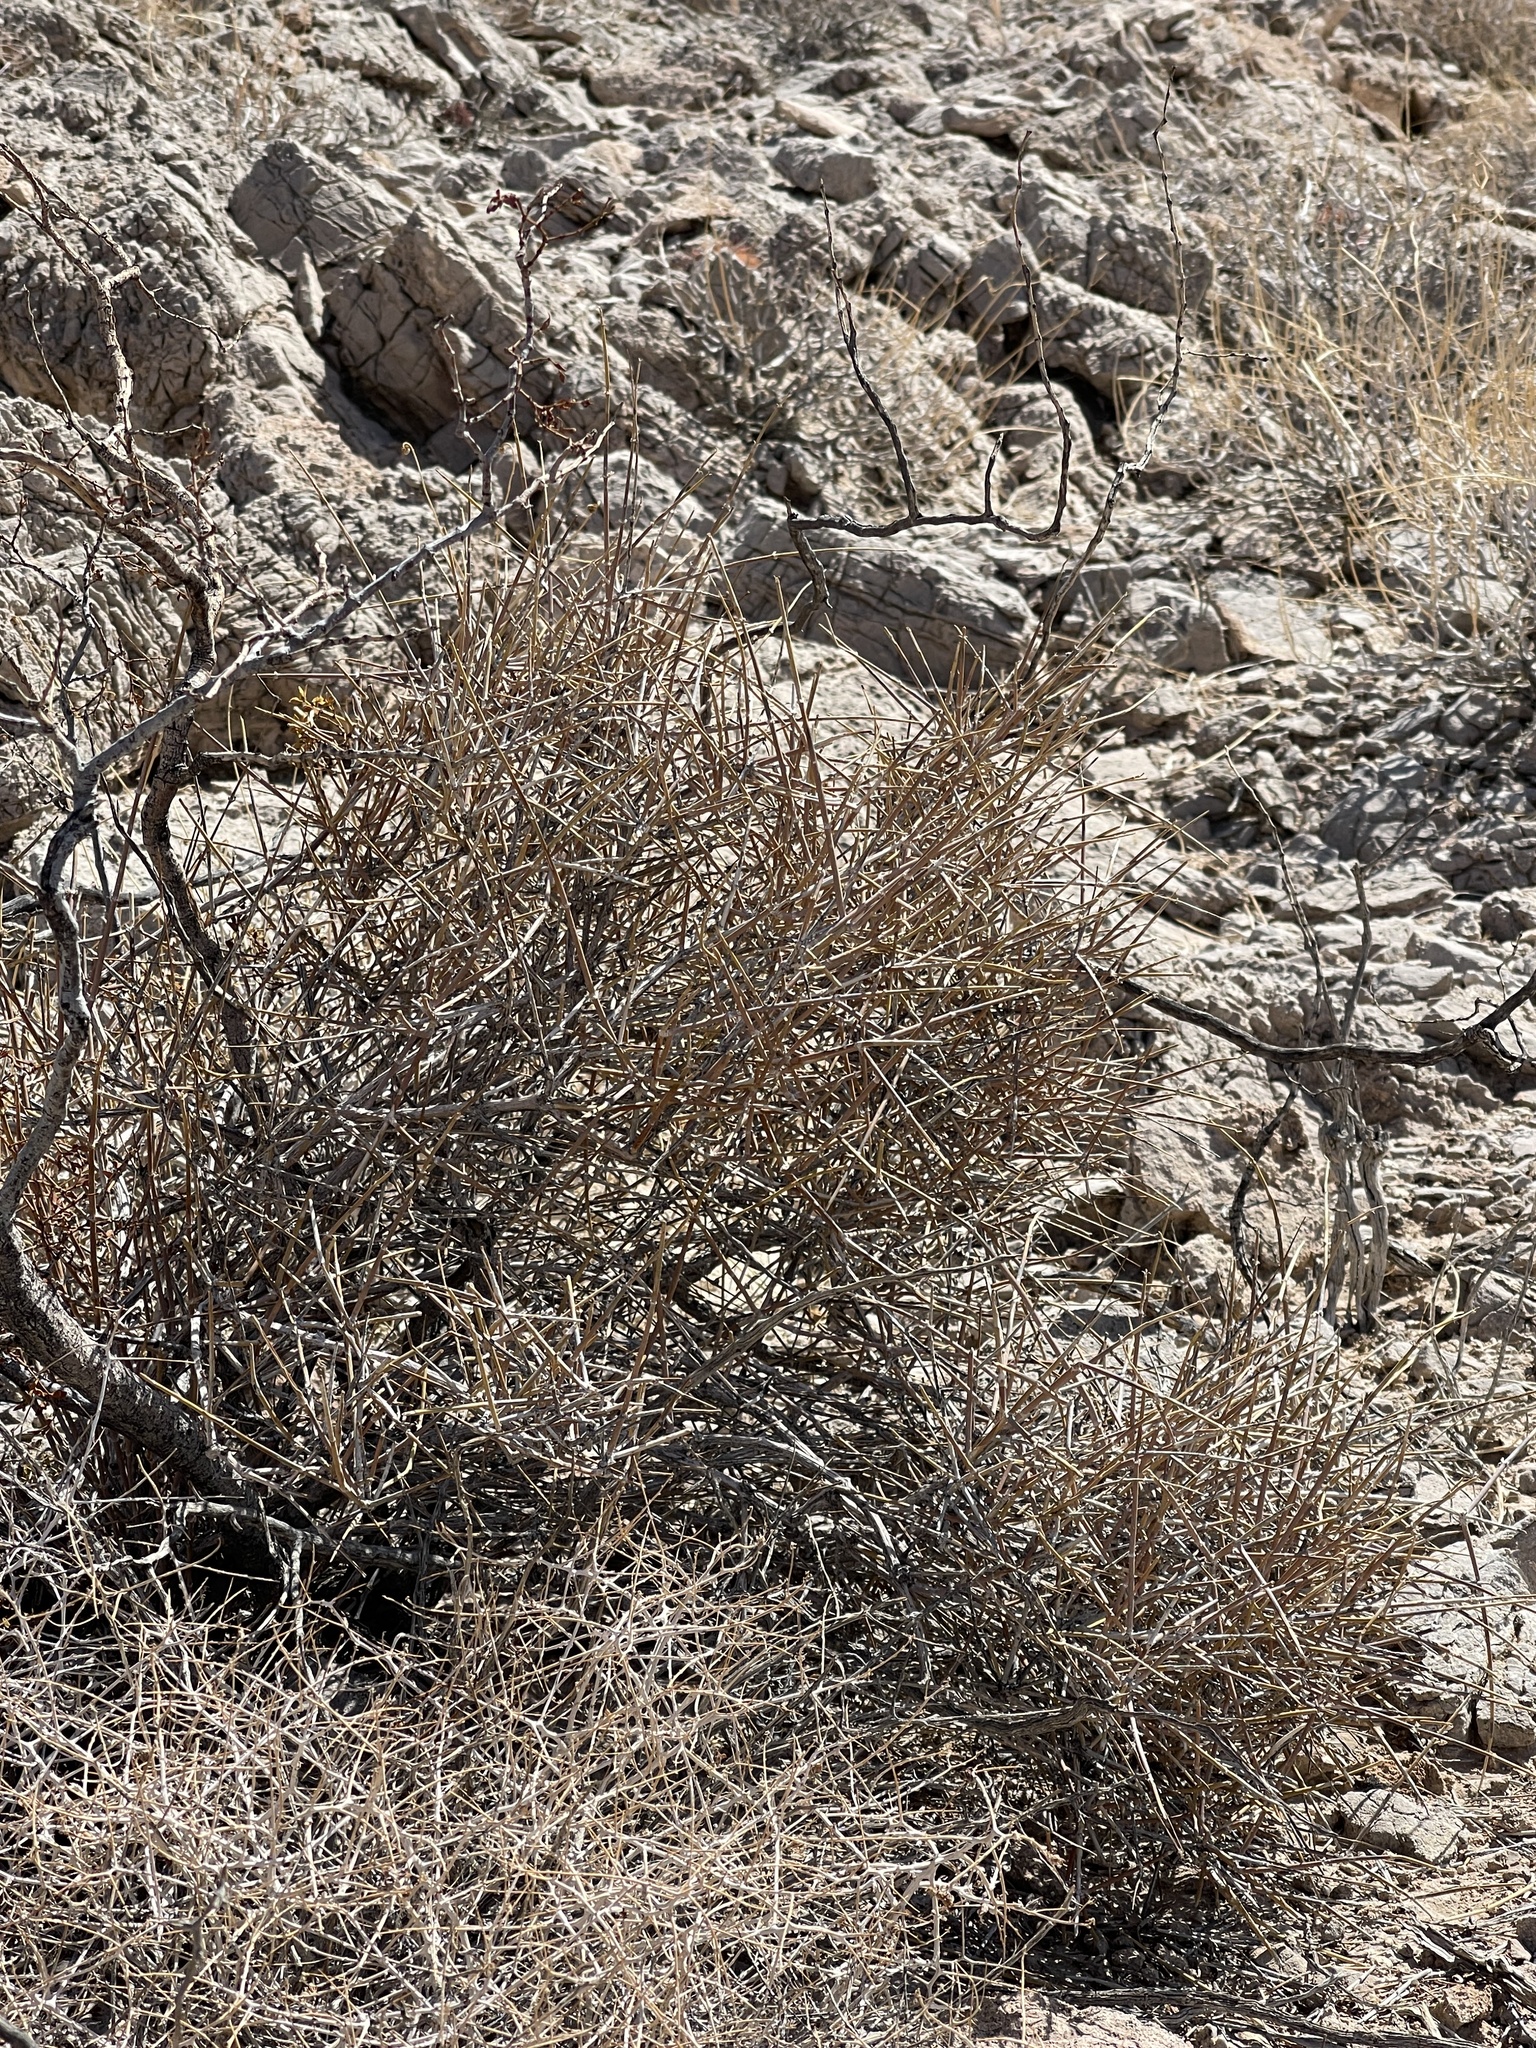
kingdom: Plantae
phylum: Tracheophyta
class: Gnetopsida
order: Ephedrales
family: Ephedraceae
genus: Ephedra
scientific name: Ephedra nevadensis
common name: Gray ephedra
